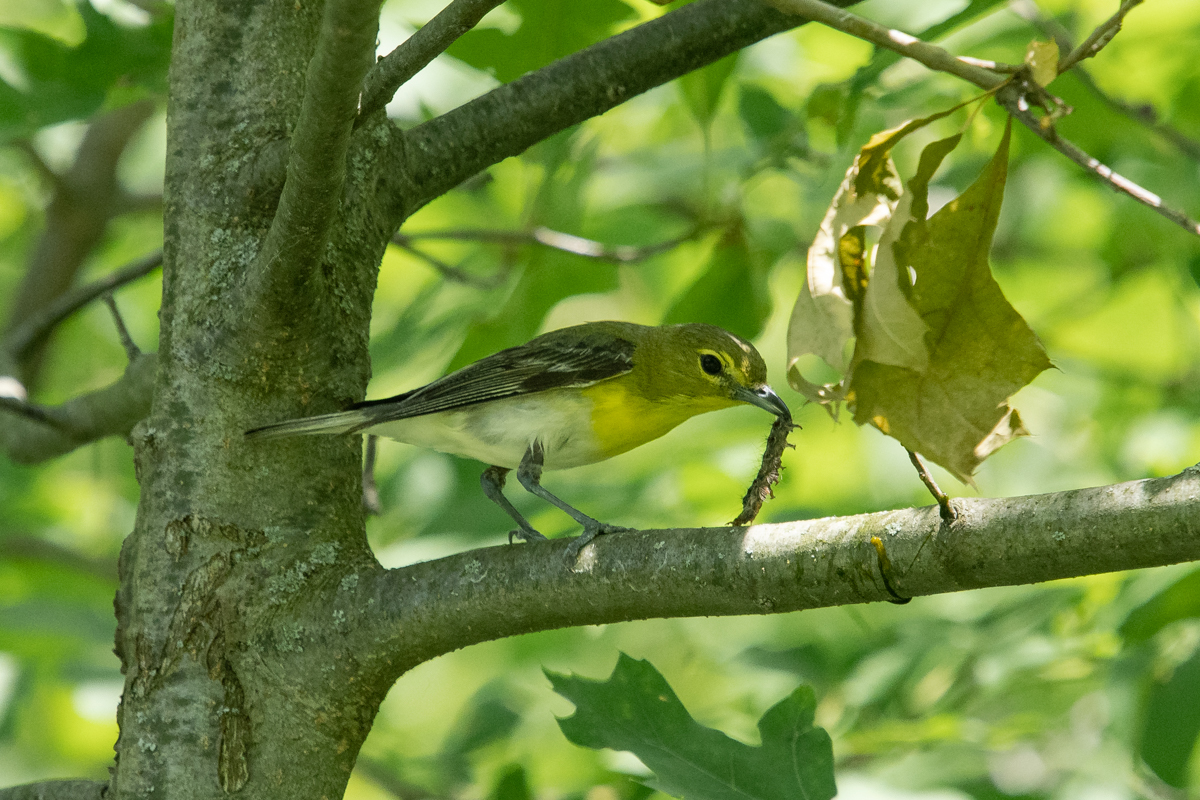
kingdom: Animalia
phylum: Chordata
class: Aves
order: Passeriformes
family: Vireonidae
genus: Vireo
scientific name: Vireo flavifrons
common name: Yellow-throated vireo
